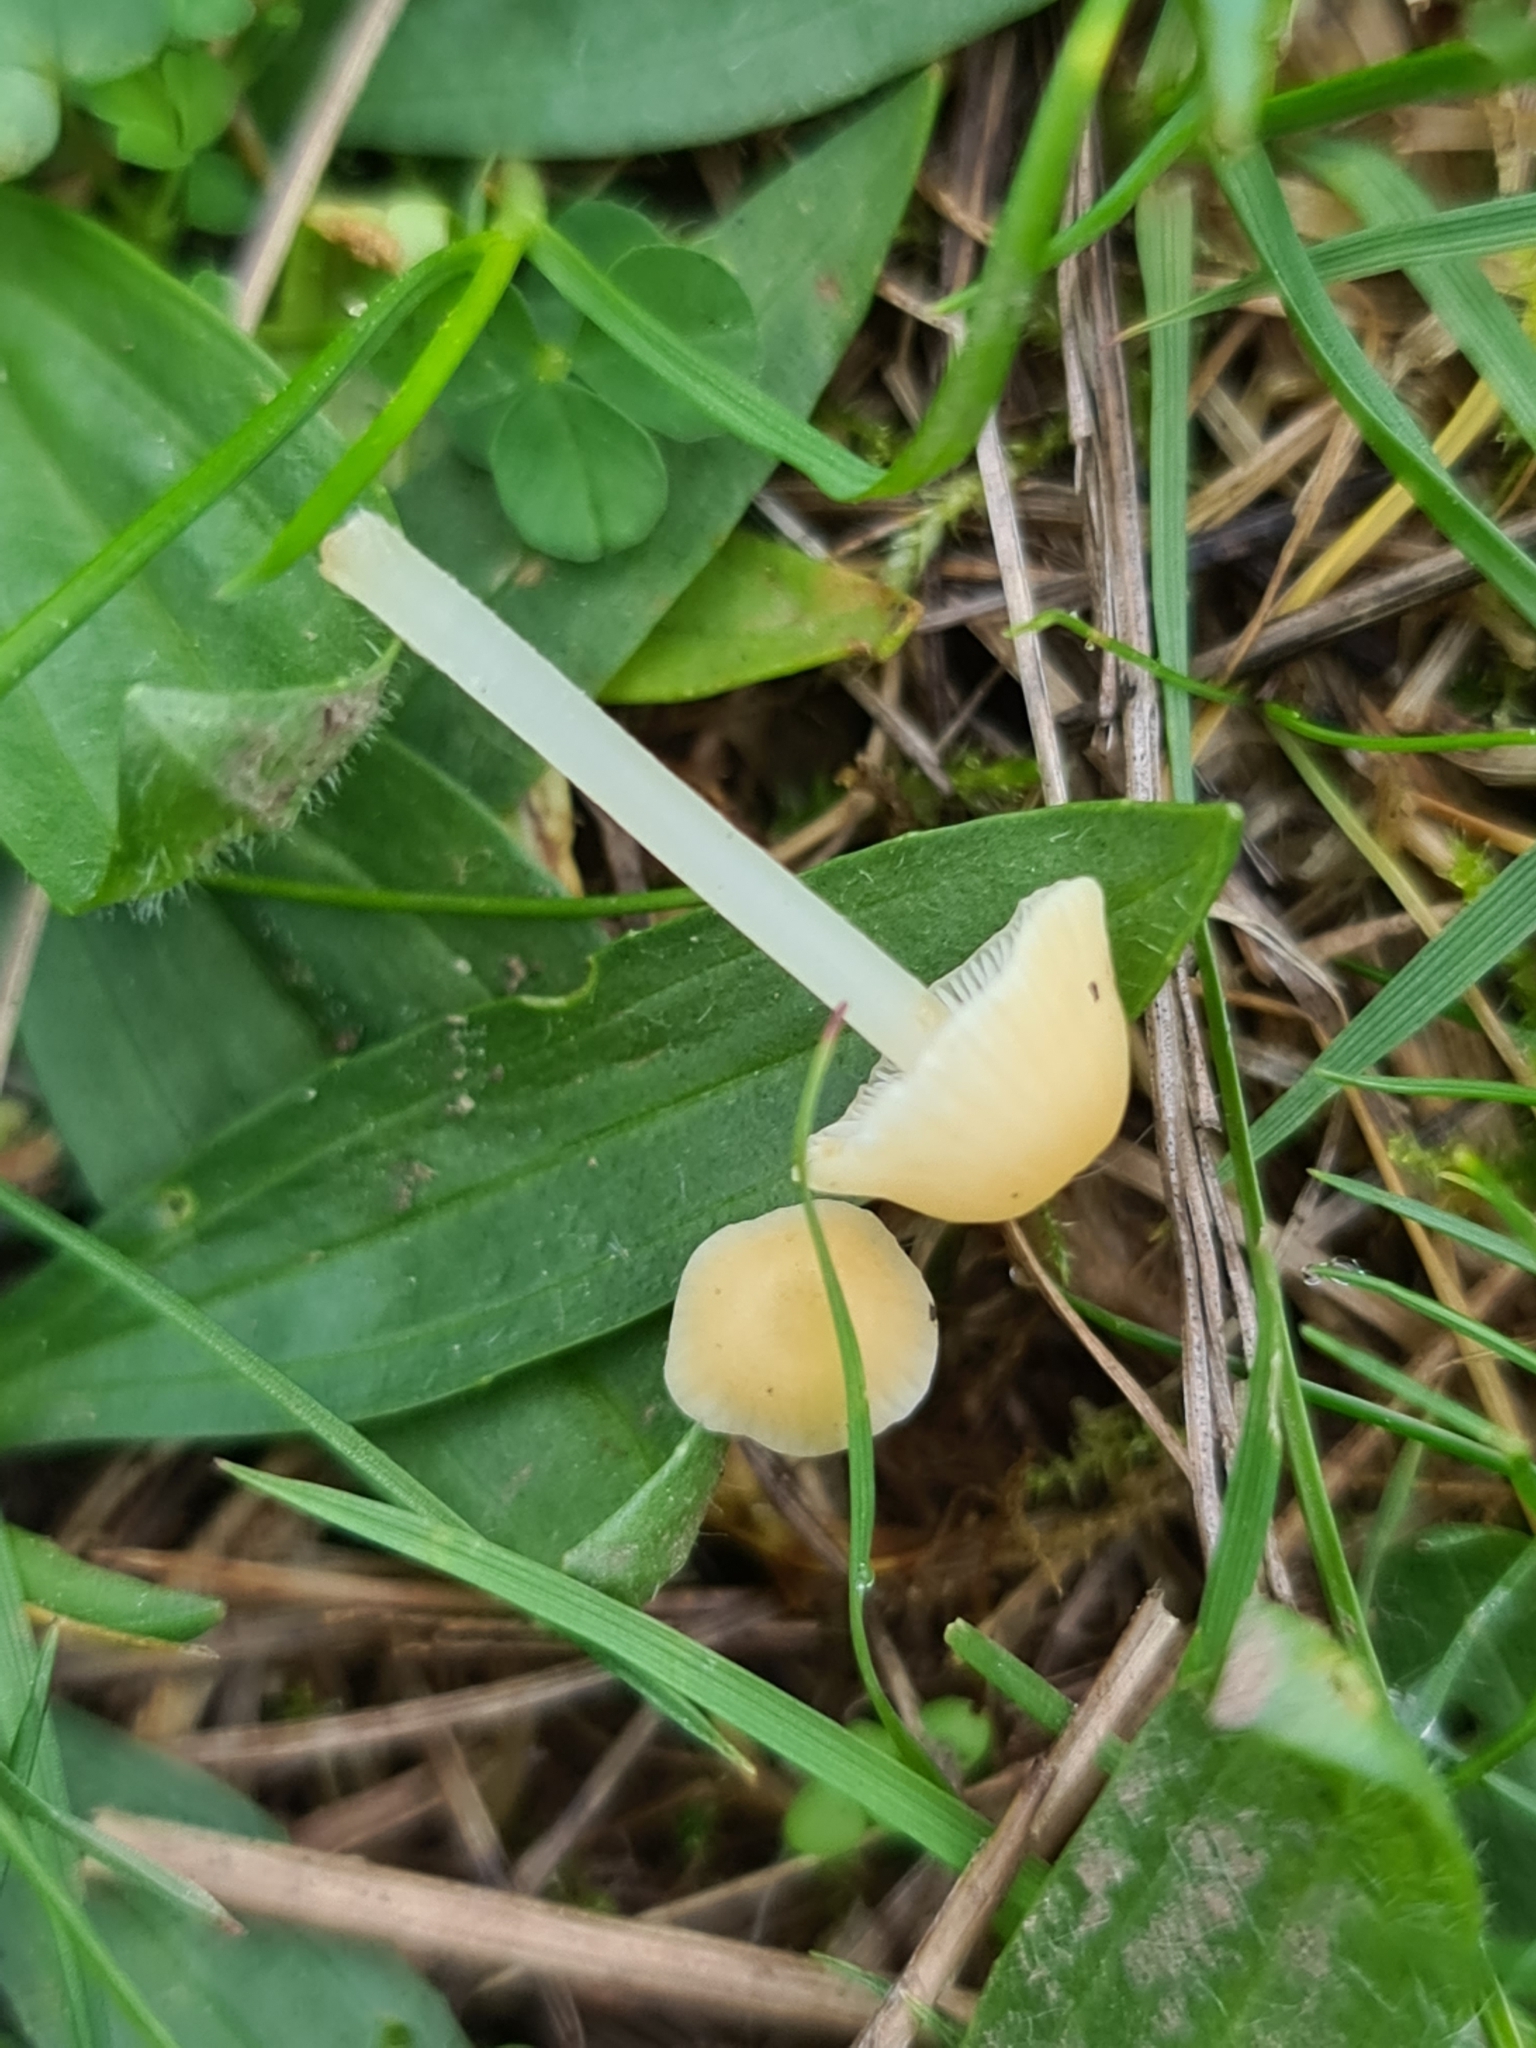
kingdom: Fungi
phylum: Basidiomycota
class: Agaricomycetes
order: Agaricales
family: Bolbitiaceae
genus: Bolbitius
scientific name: Bolbitius titubans
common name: Yellow fieldcap
